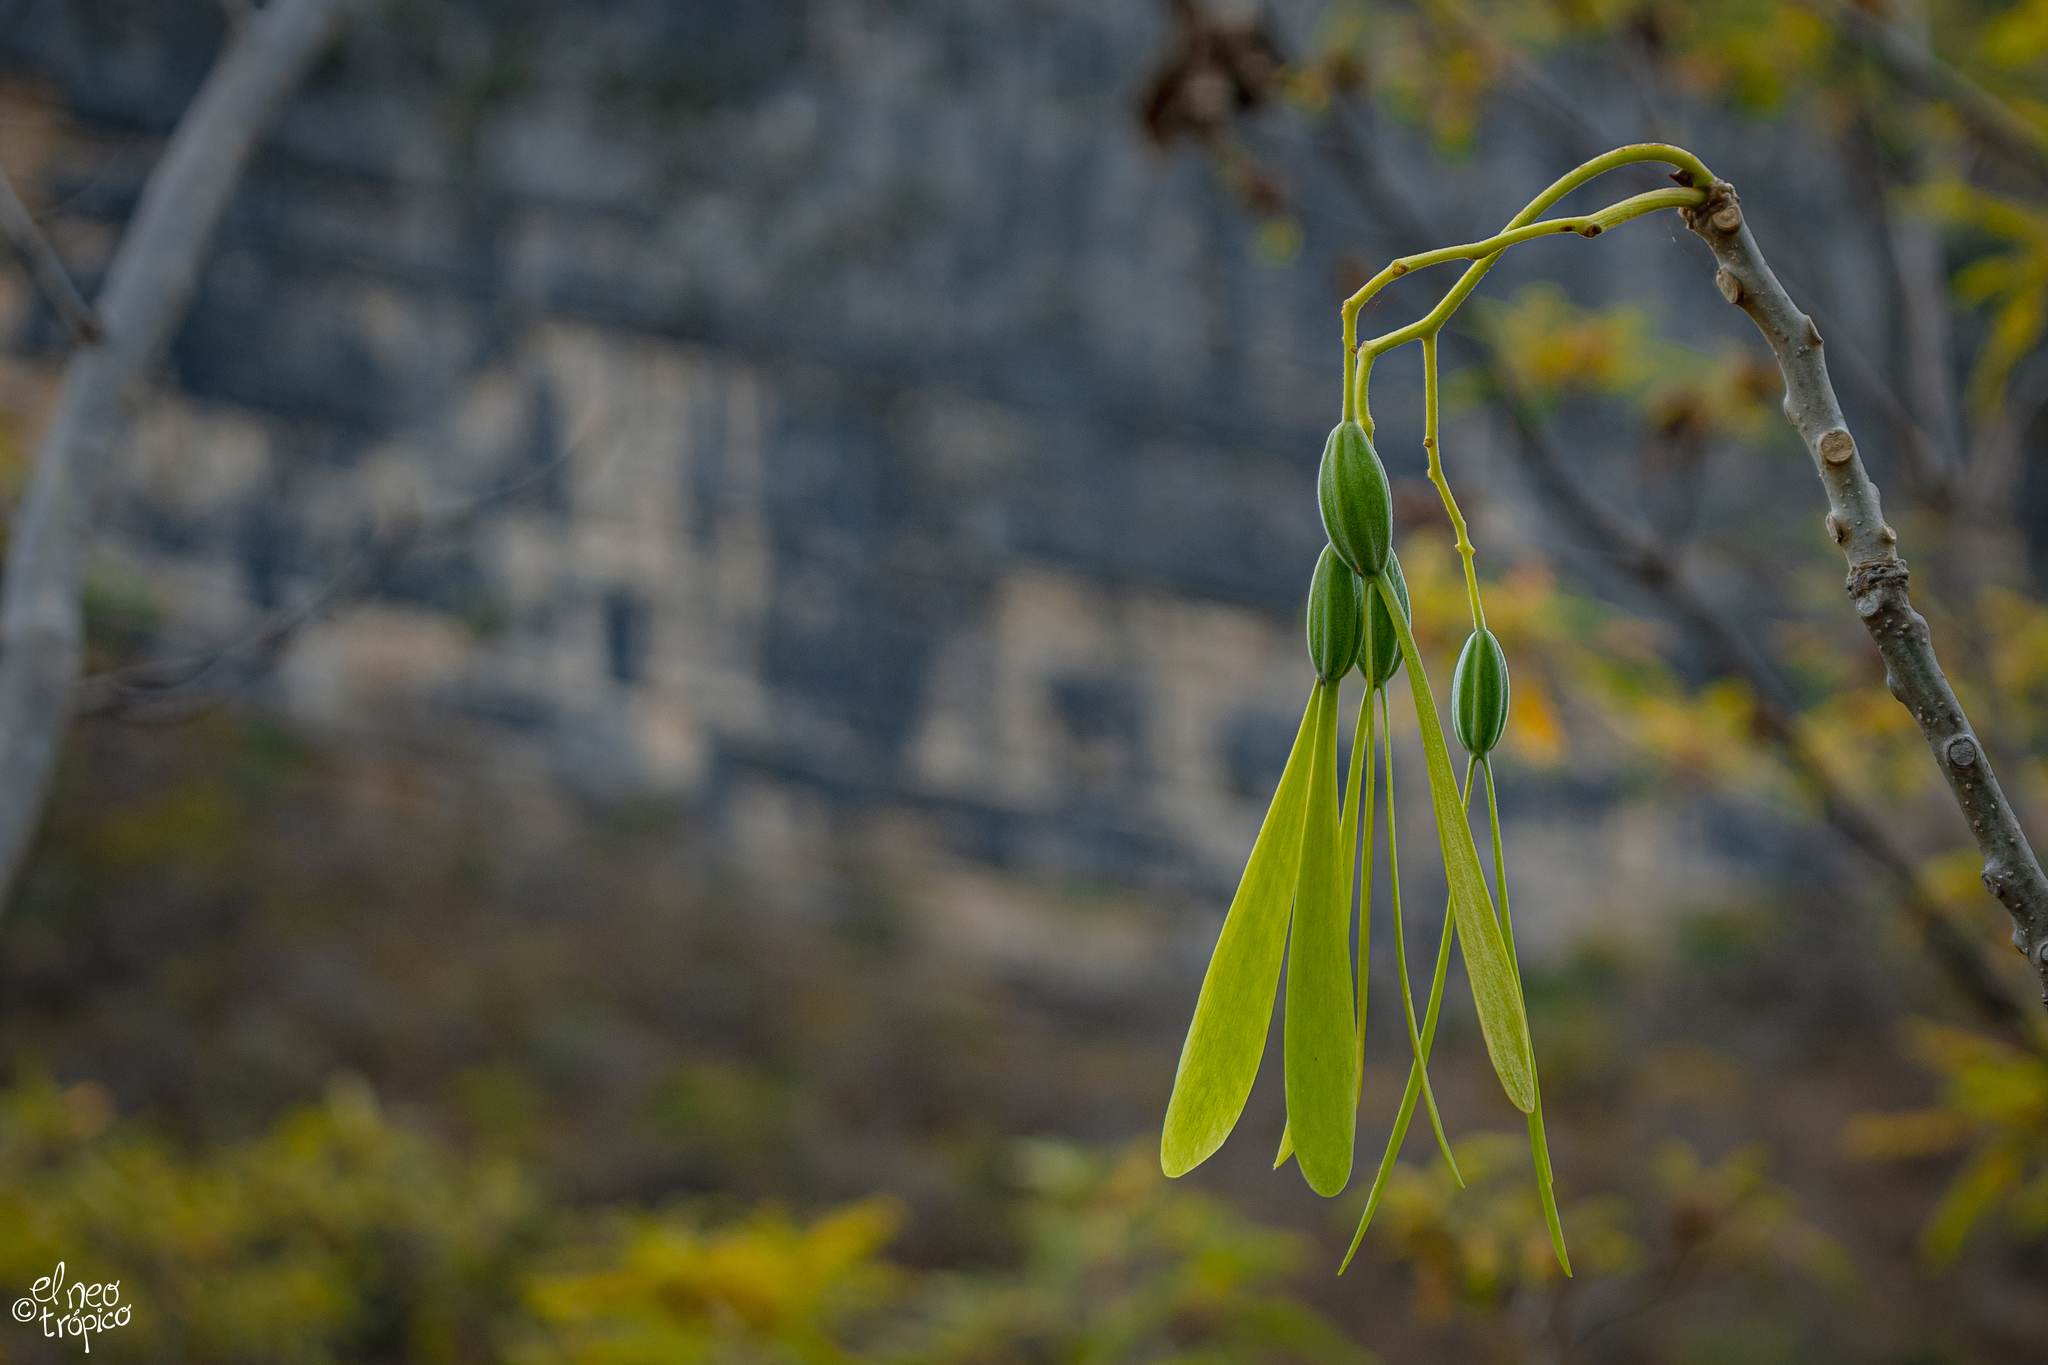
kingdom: Plantae
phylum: Tracheophyta
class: Magnoliopsida
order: Laurales
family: Hernandiaceae
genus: Gyrocarpus
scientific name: Gyrocarpus mocinoi
